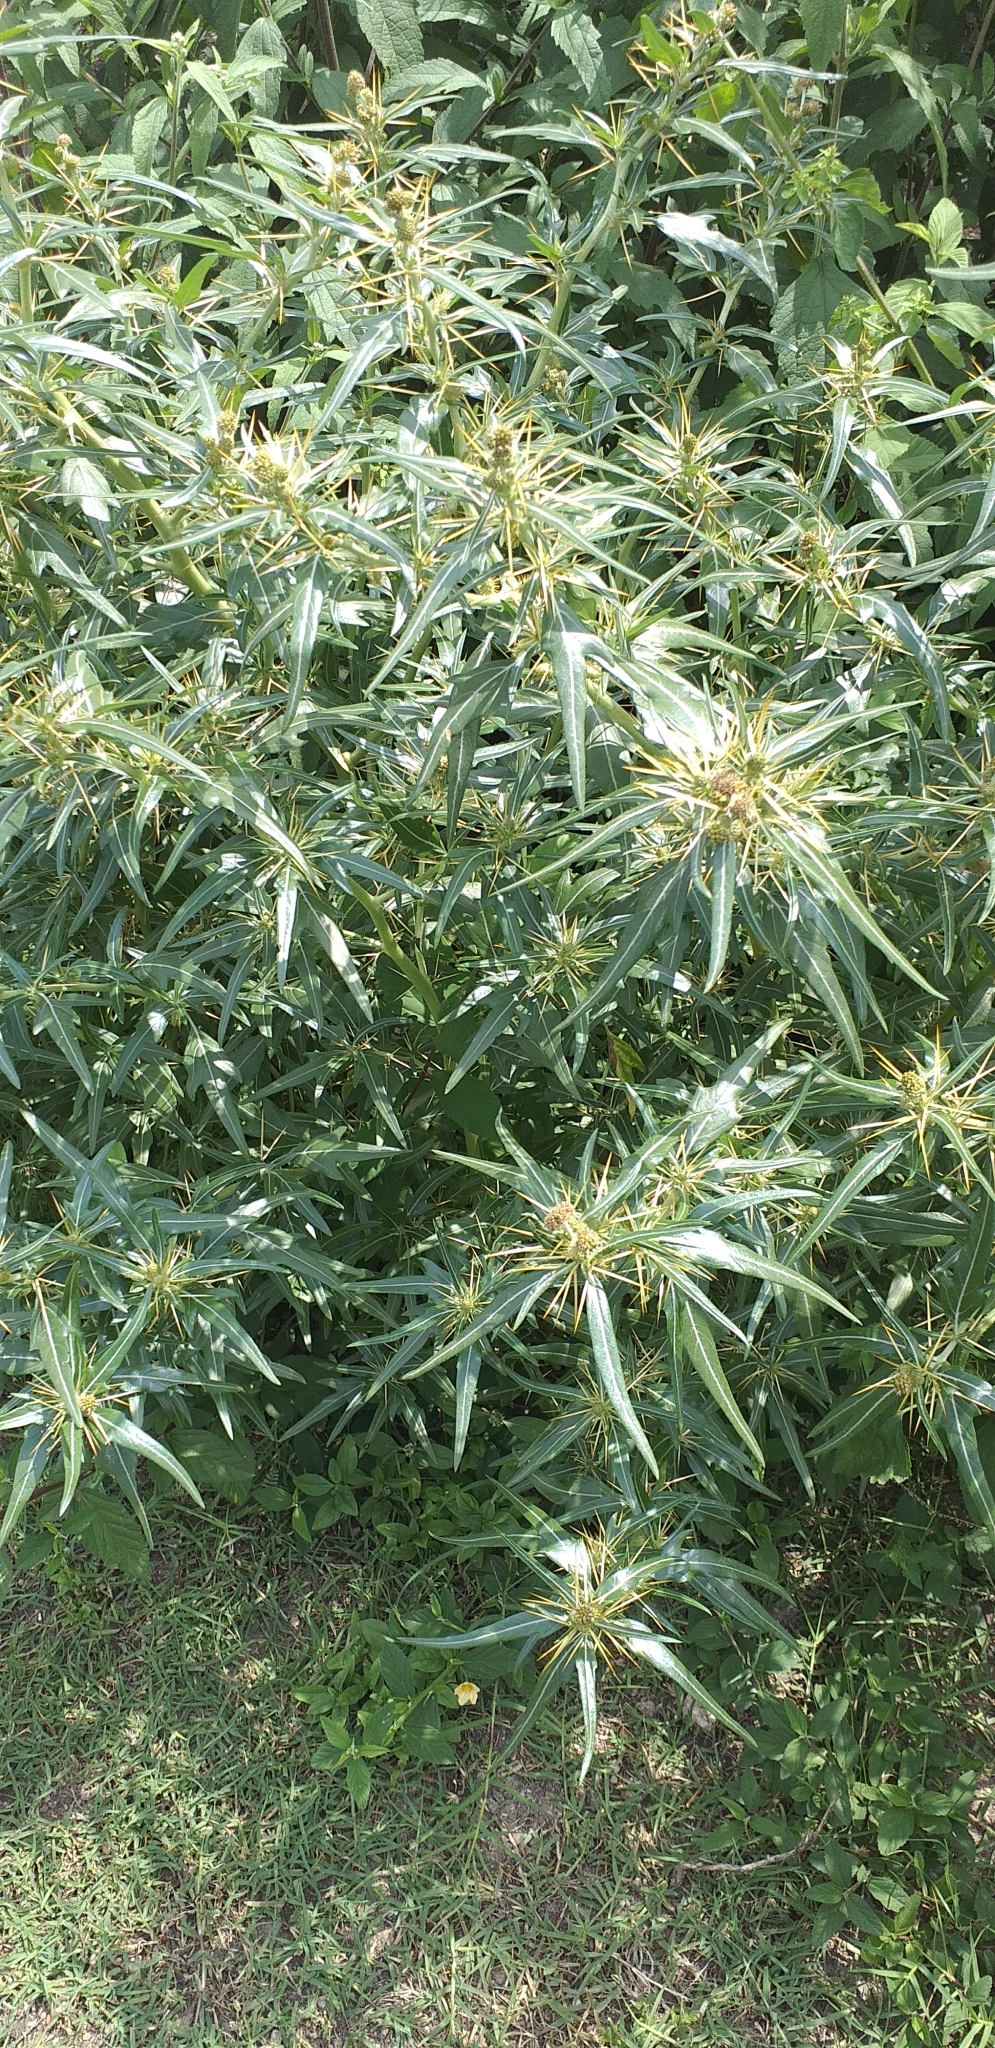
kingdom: Plantae
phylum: Tracheophyta
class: Magnoliopsida
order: Asterales
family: Asteraceae
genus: Xanthium
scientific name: Xanthium spinosum
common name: Spiny cocklebur
